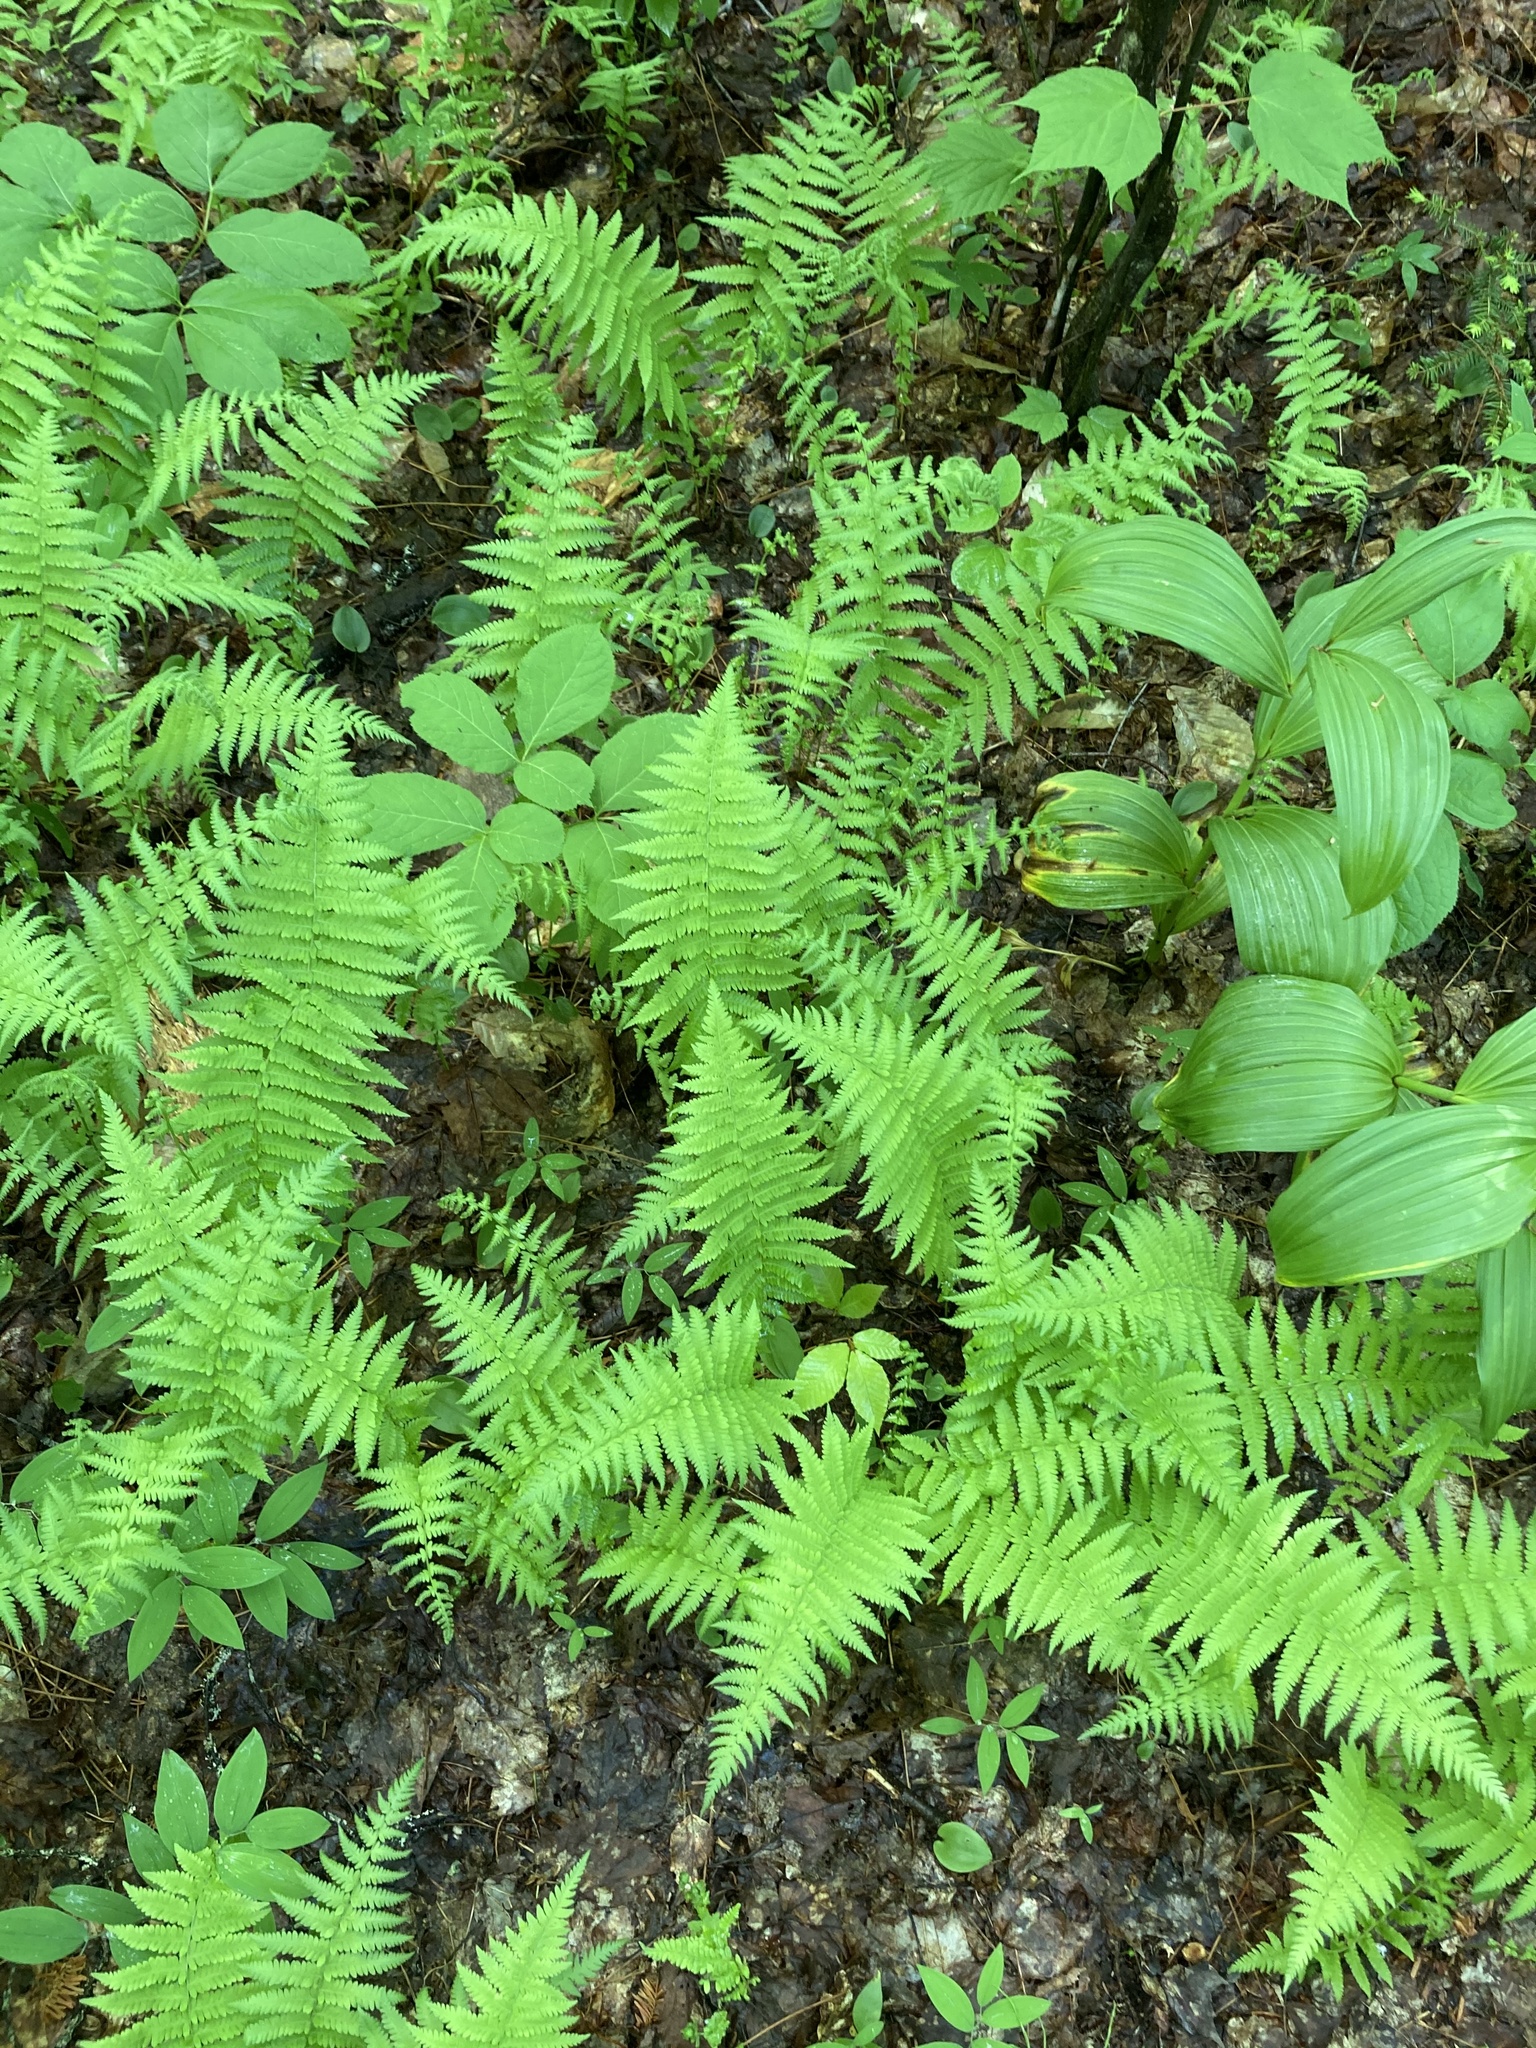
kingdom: Plantae
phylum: Tracheophyta
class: Polypodiopsida
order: Polypodiales
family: Thelypteridaceae
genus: Amauropelta
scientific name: Amauropelta noveboracensis
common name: New york fern
